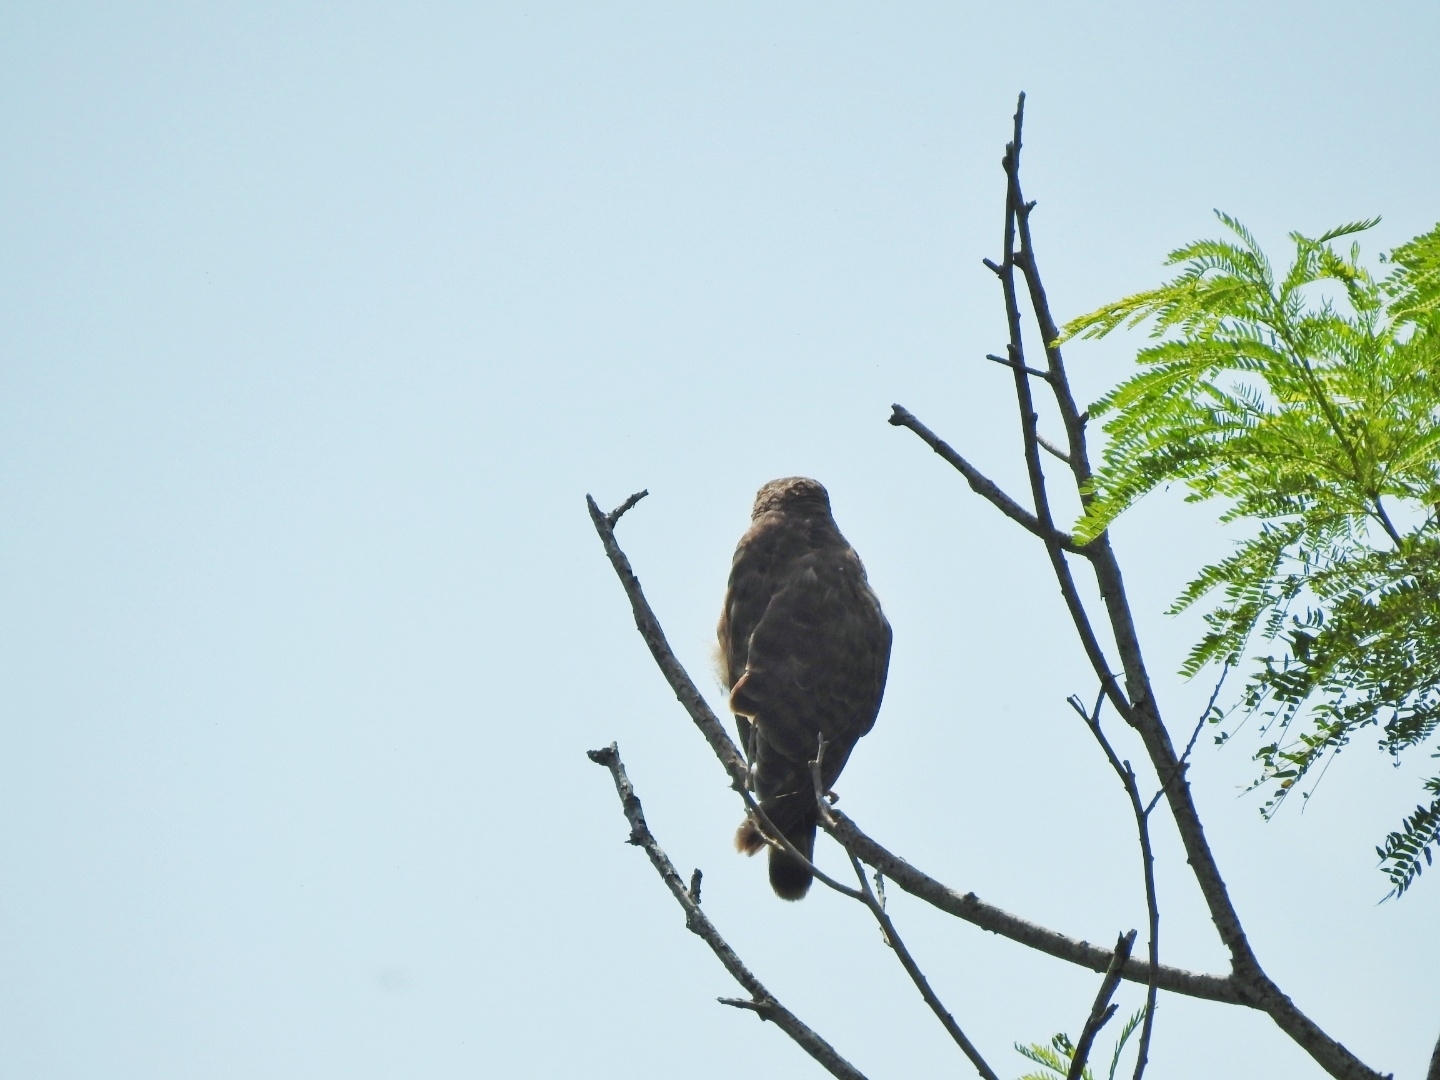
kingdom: Animalia
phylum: Chordata
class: Aves
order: Accipitriformes
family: Accipitridae
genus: Rupornis
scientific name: Rupornis magnirostris
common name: Roadside hawk
